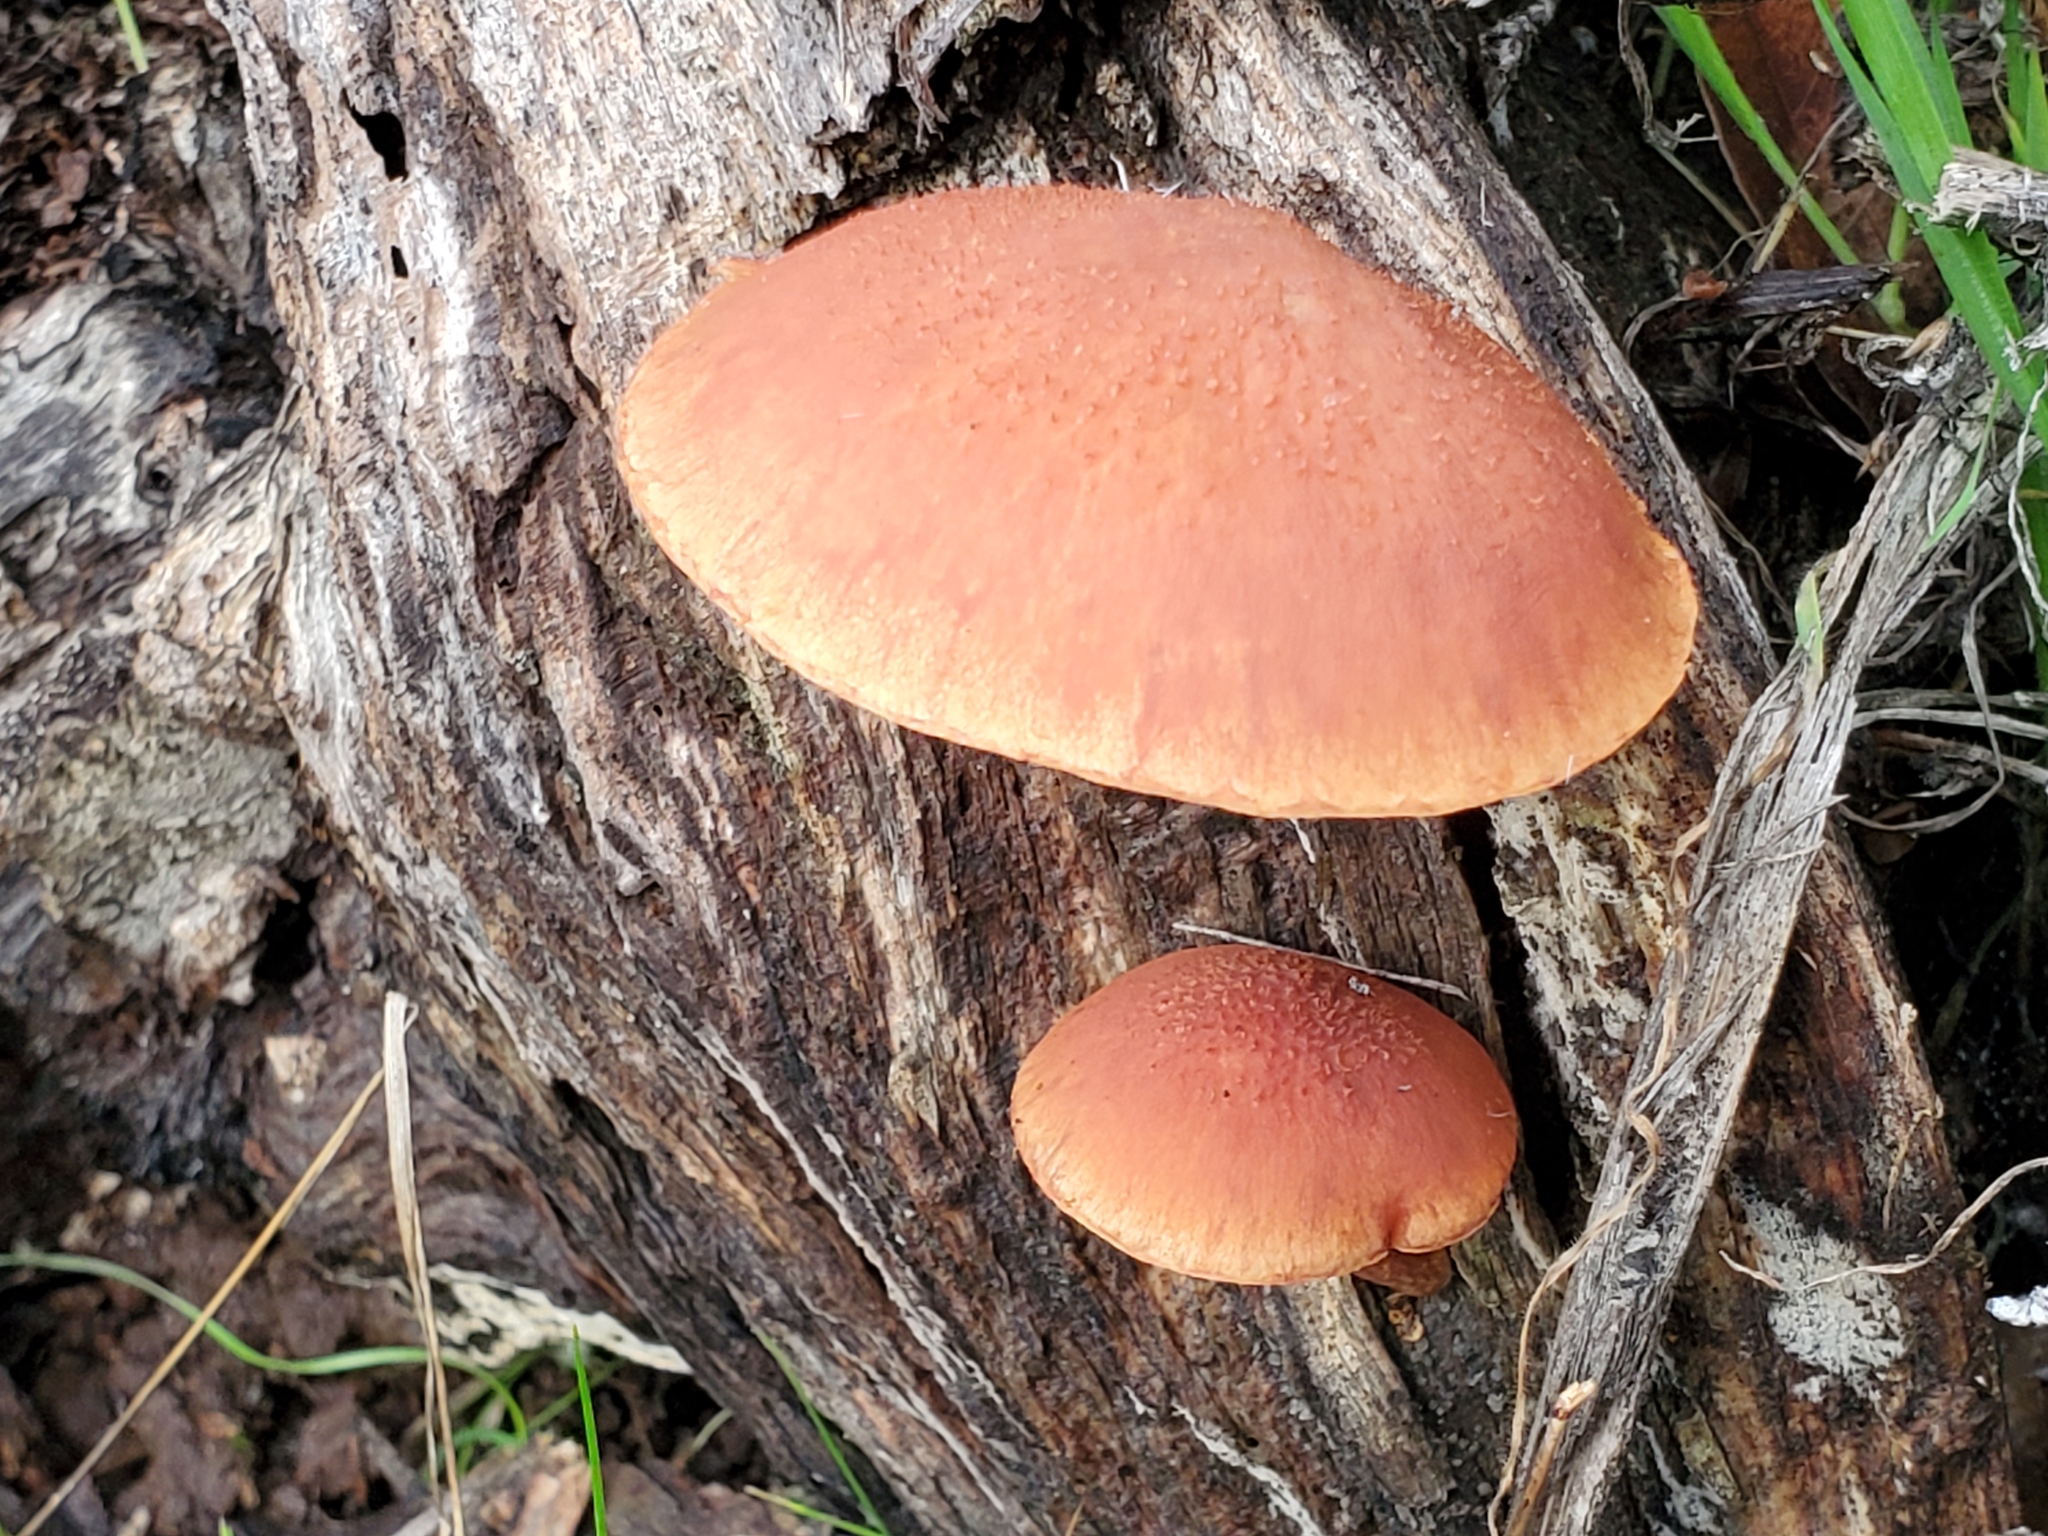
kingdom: Fungi
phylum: Basidiomycota
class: Agaricomycetes
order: Agaricales
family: Hymenogastraceae
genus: Gymnopilus
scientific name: Gymnopilus luteofolius
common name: Yellow-gilled gymnopilus
